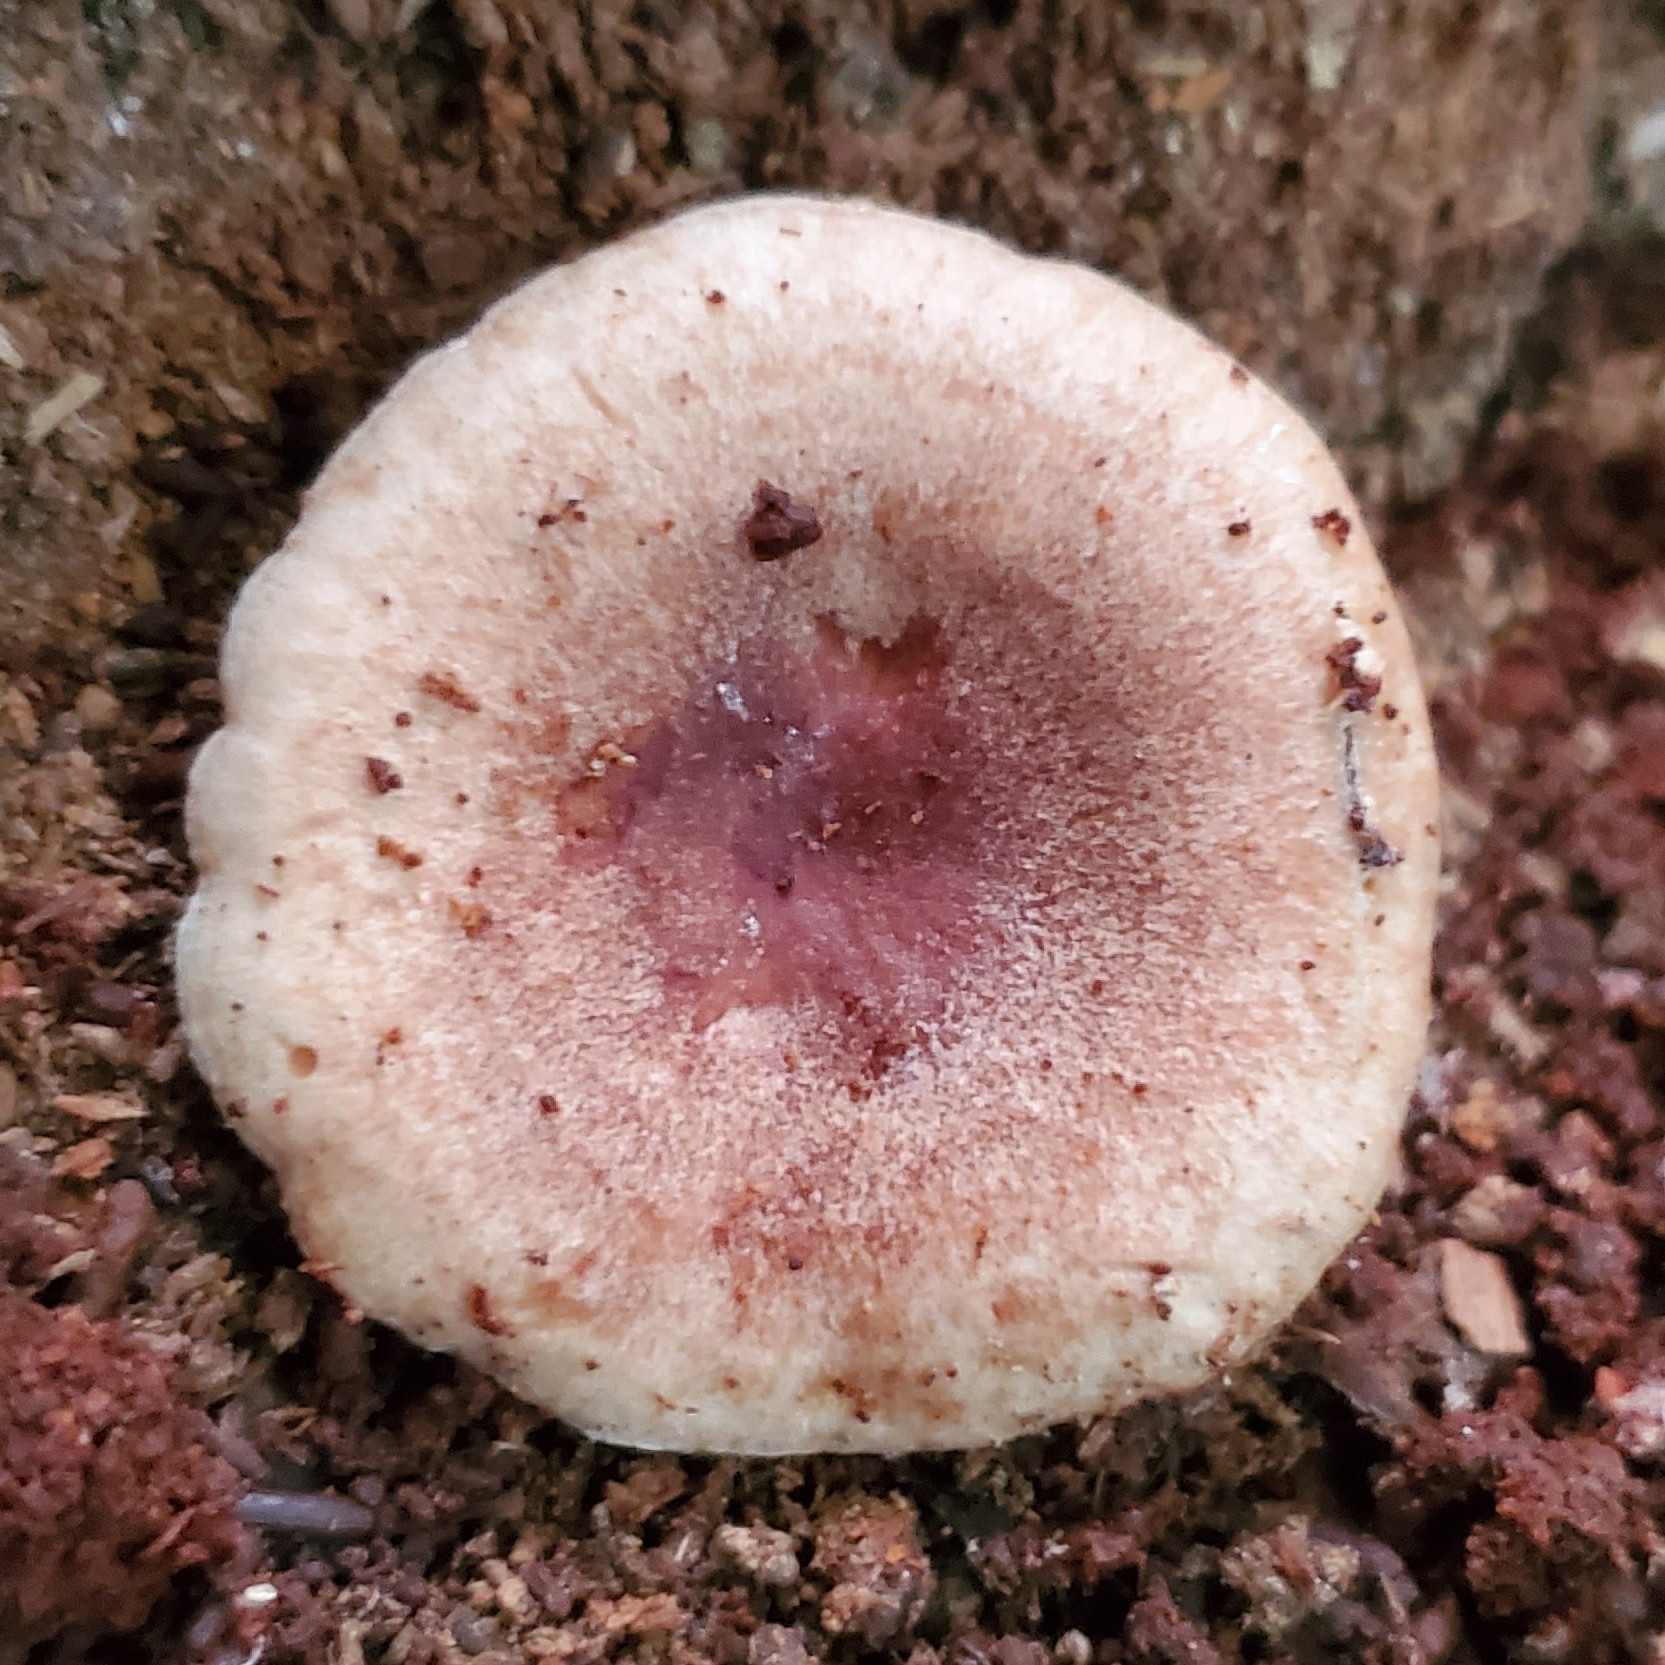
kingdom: Fungi
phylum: Basidiomycota
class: Agaricomycetes
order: Russulales
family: Russulaceae
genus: Lactarius
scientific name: Lactarius torminosus
